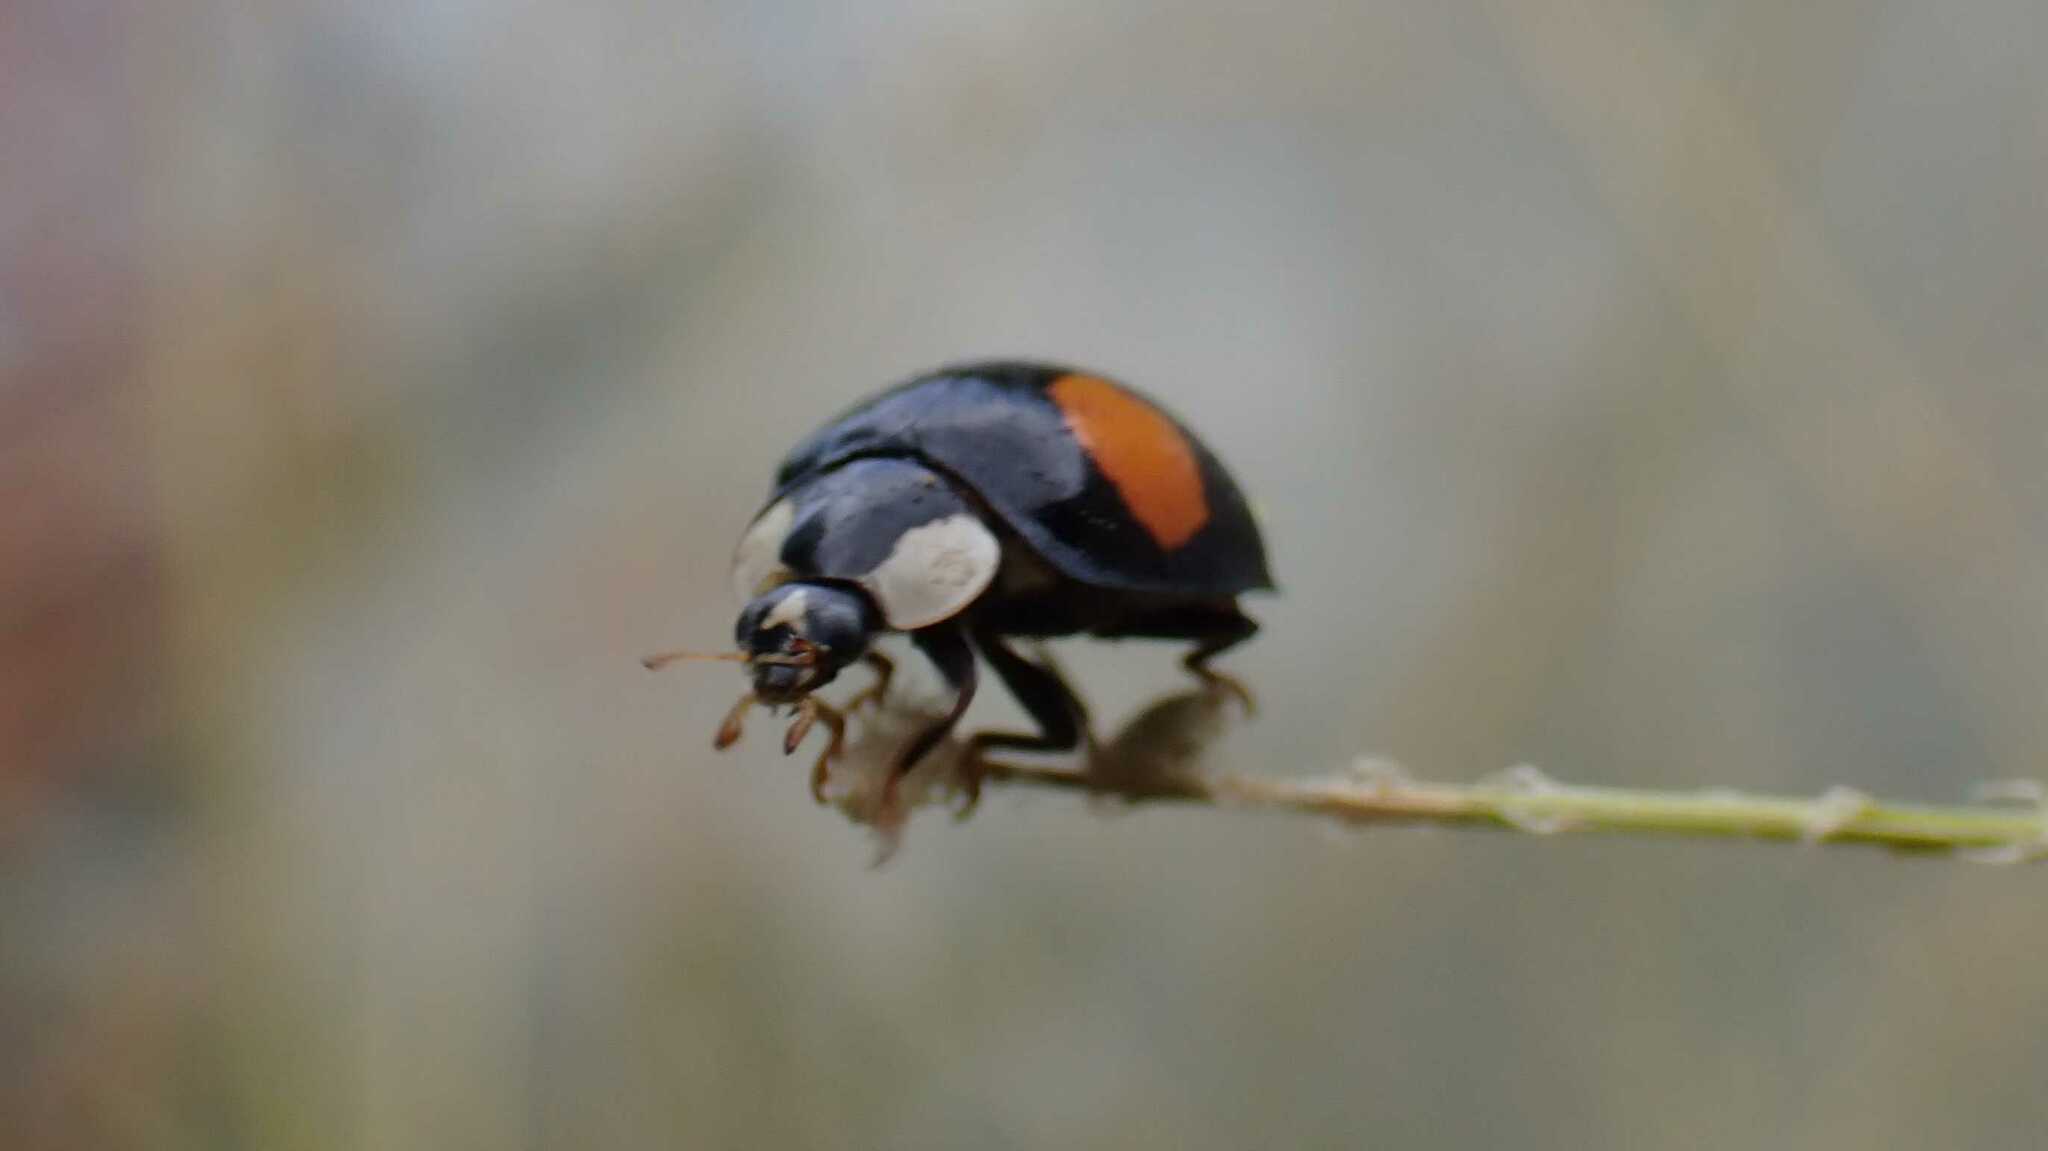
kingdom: Animalia
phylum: Arthropoda
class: Insecta
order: Coleoptera
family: Coccinellidae
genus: Harmonia
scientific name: Harmonia axyridis
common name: Harlequin ladybird
